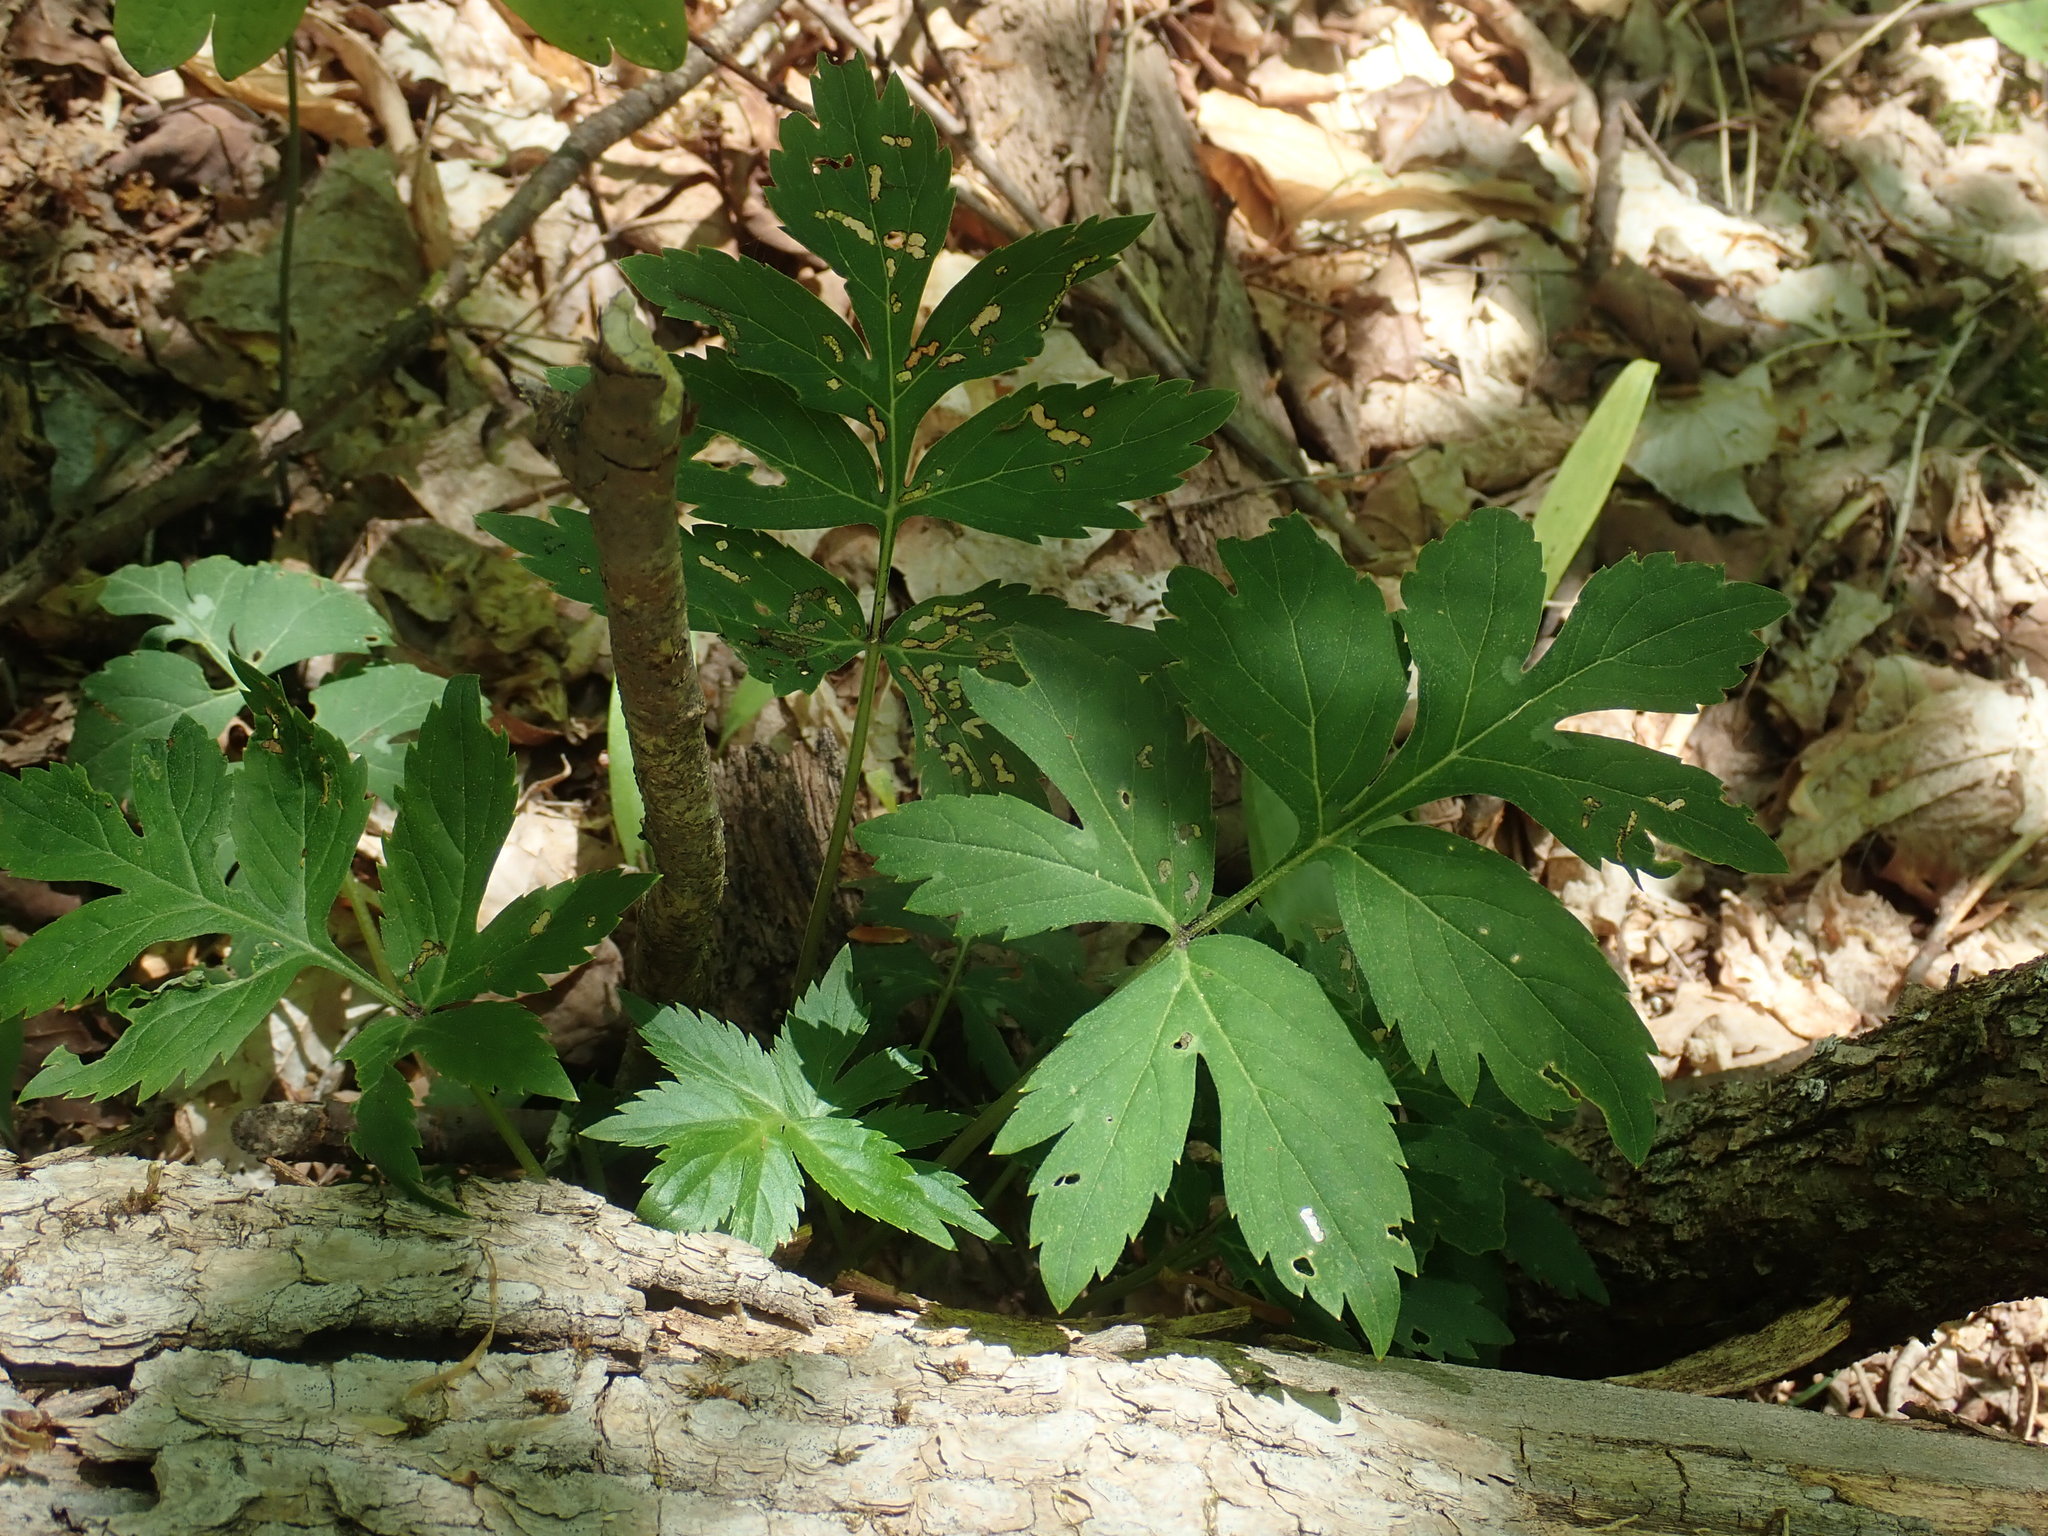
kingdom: Plantae
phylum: Tracheophyta
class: Magnoliopsida
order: Boraginales
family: Hydrophyllaceae
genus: Hydrophyllum
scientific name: Hydrophyllum virginianum
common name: Virginia waterleaf
